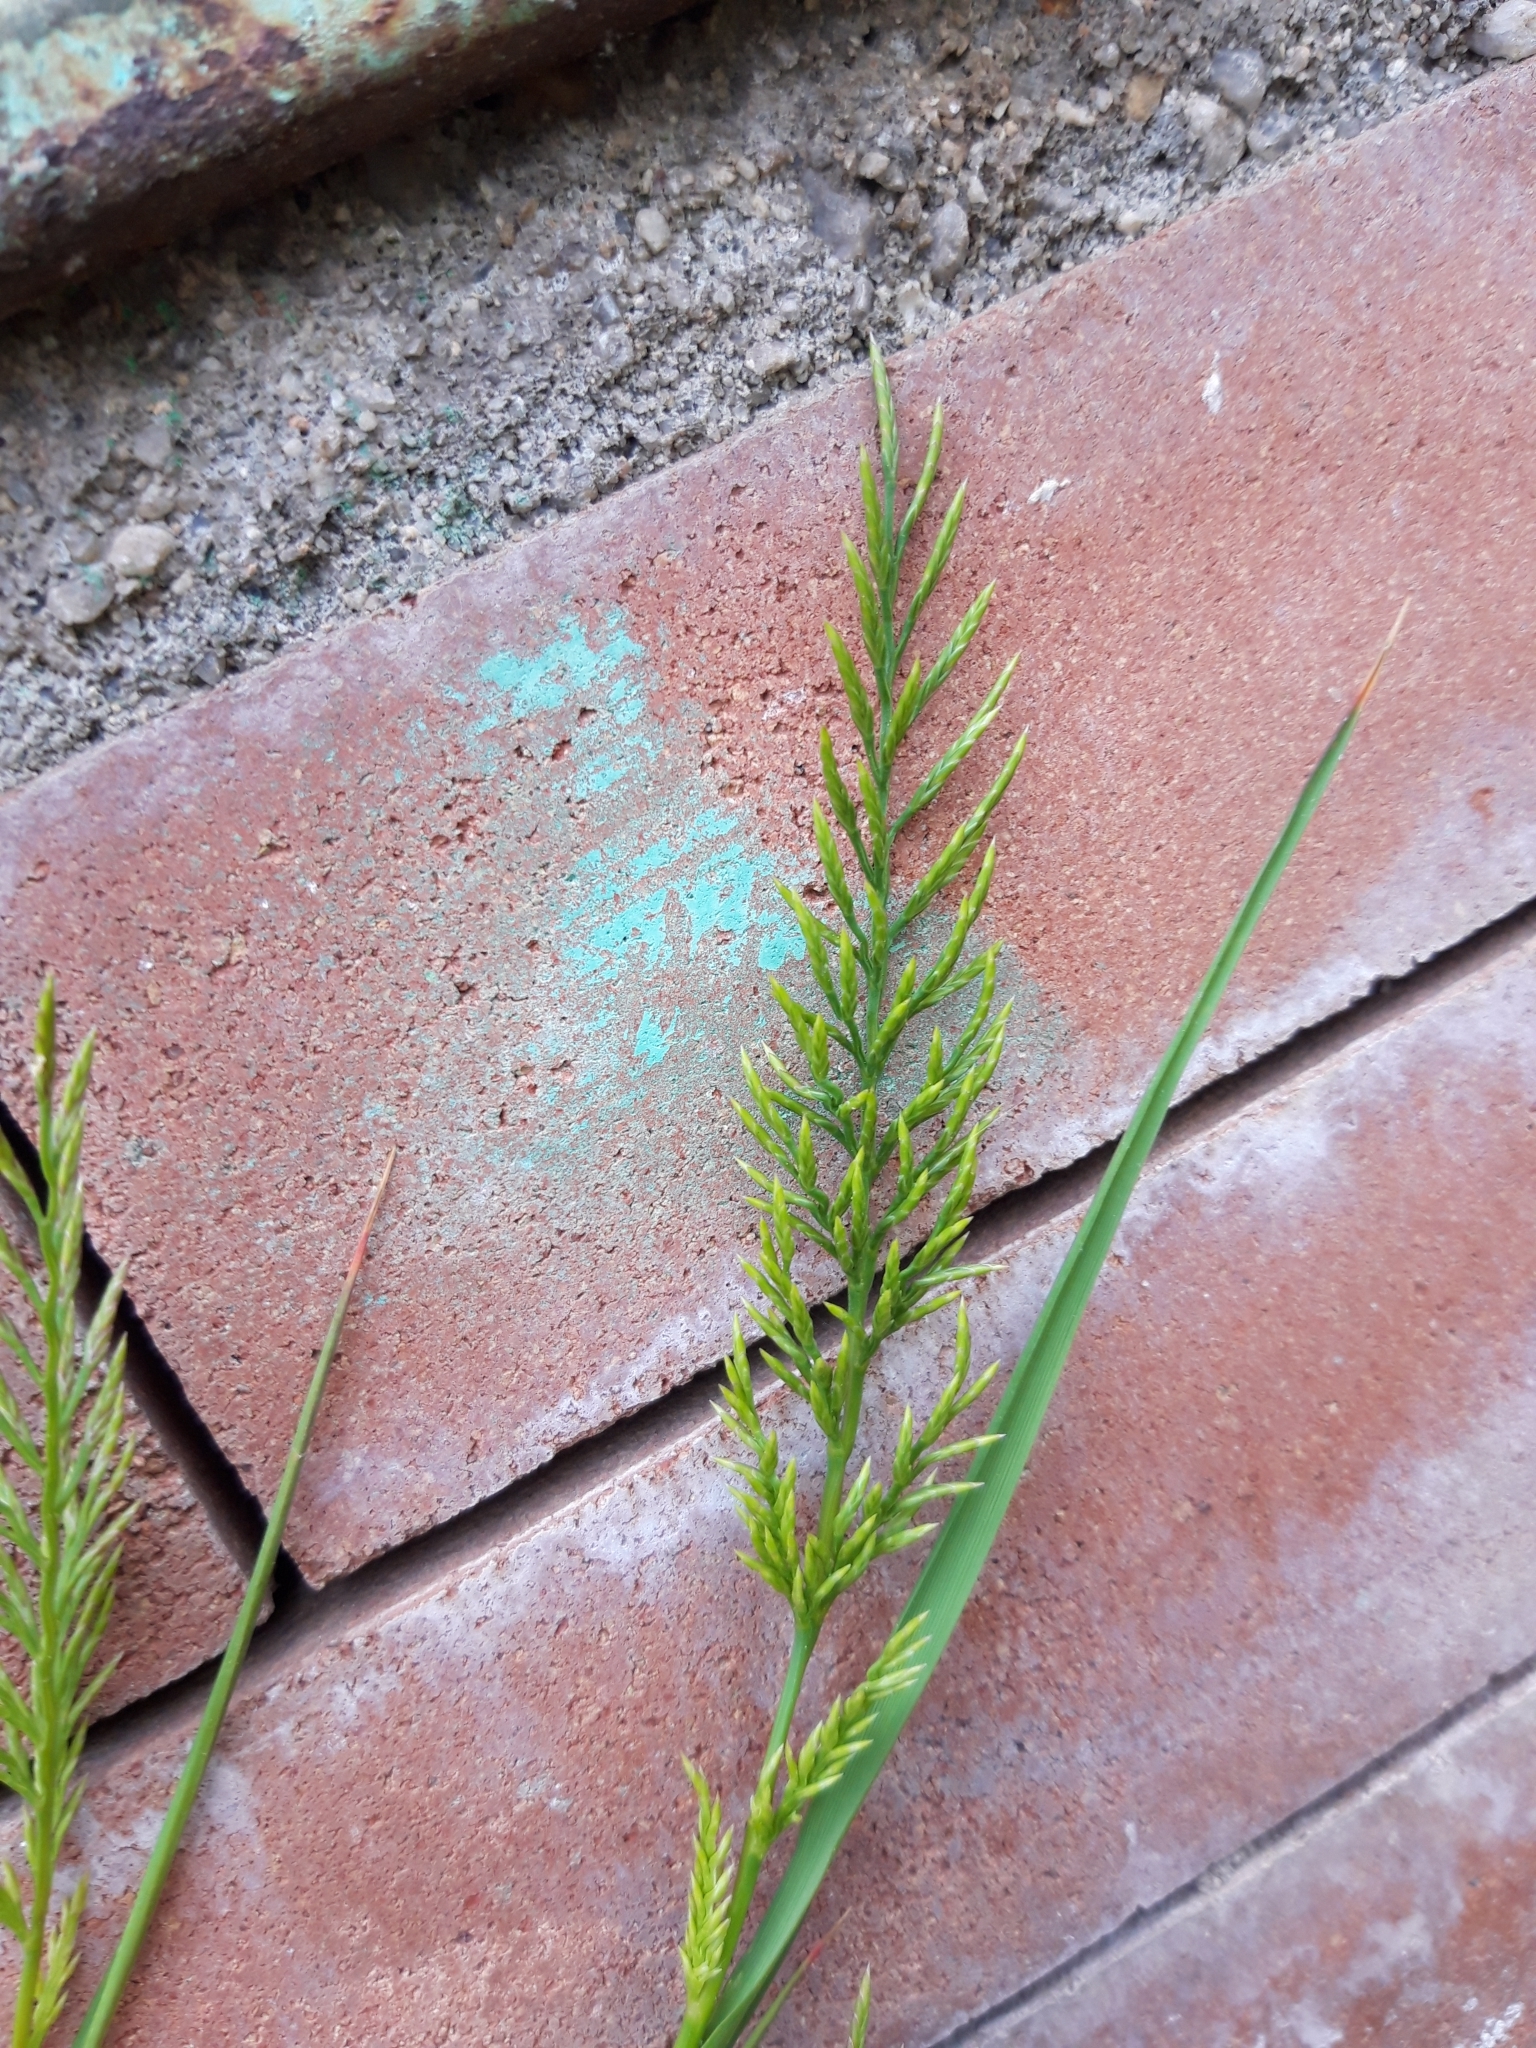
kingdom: Plantae
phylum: Tracheophyta
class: Liliopsida
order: Poales
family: Poaceae
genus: Catapodium
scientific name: Catapodium rigidum
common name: Fern-grass
